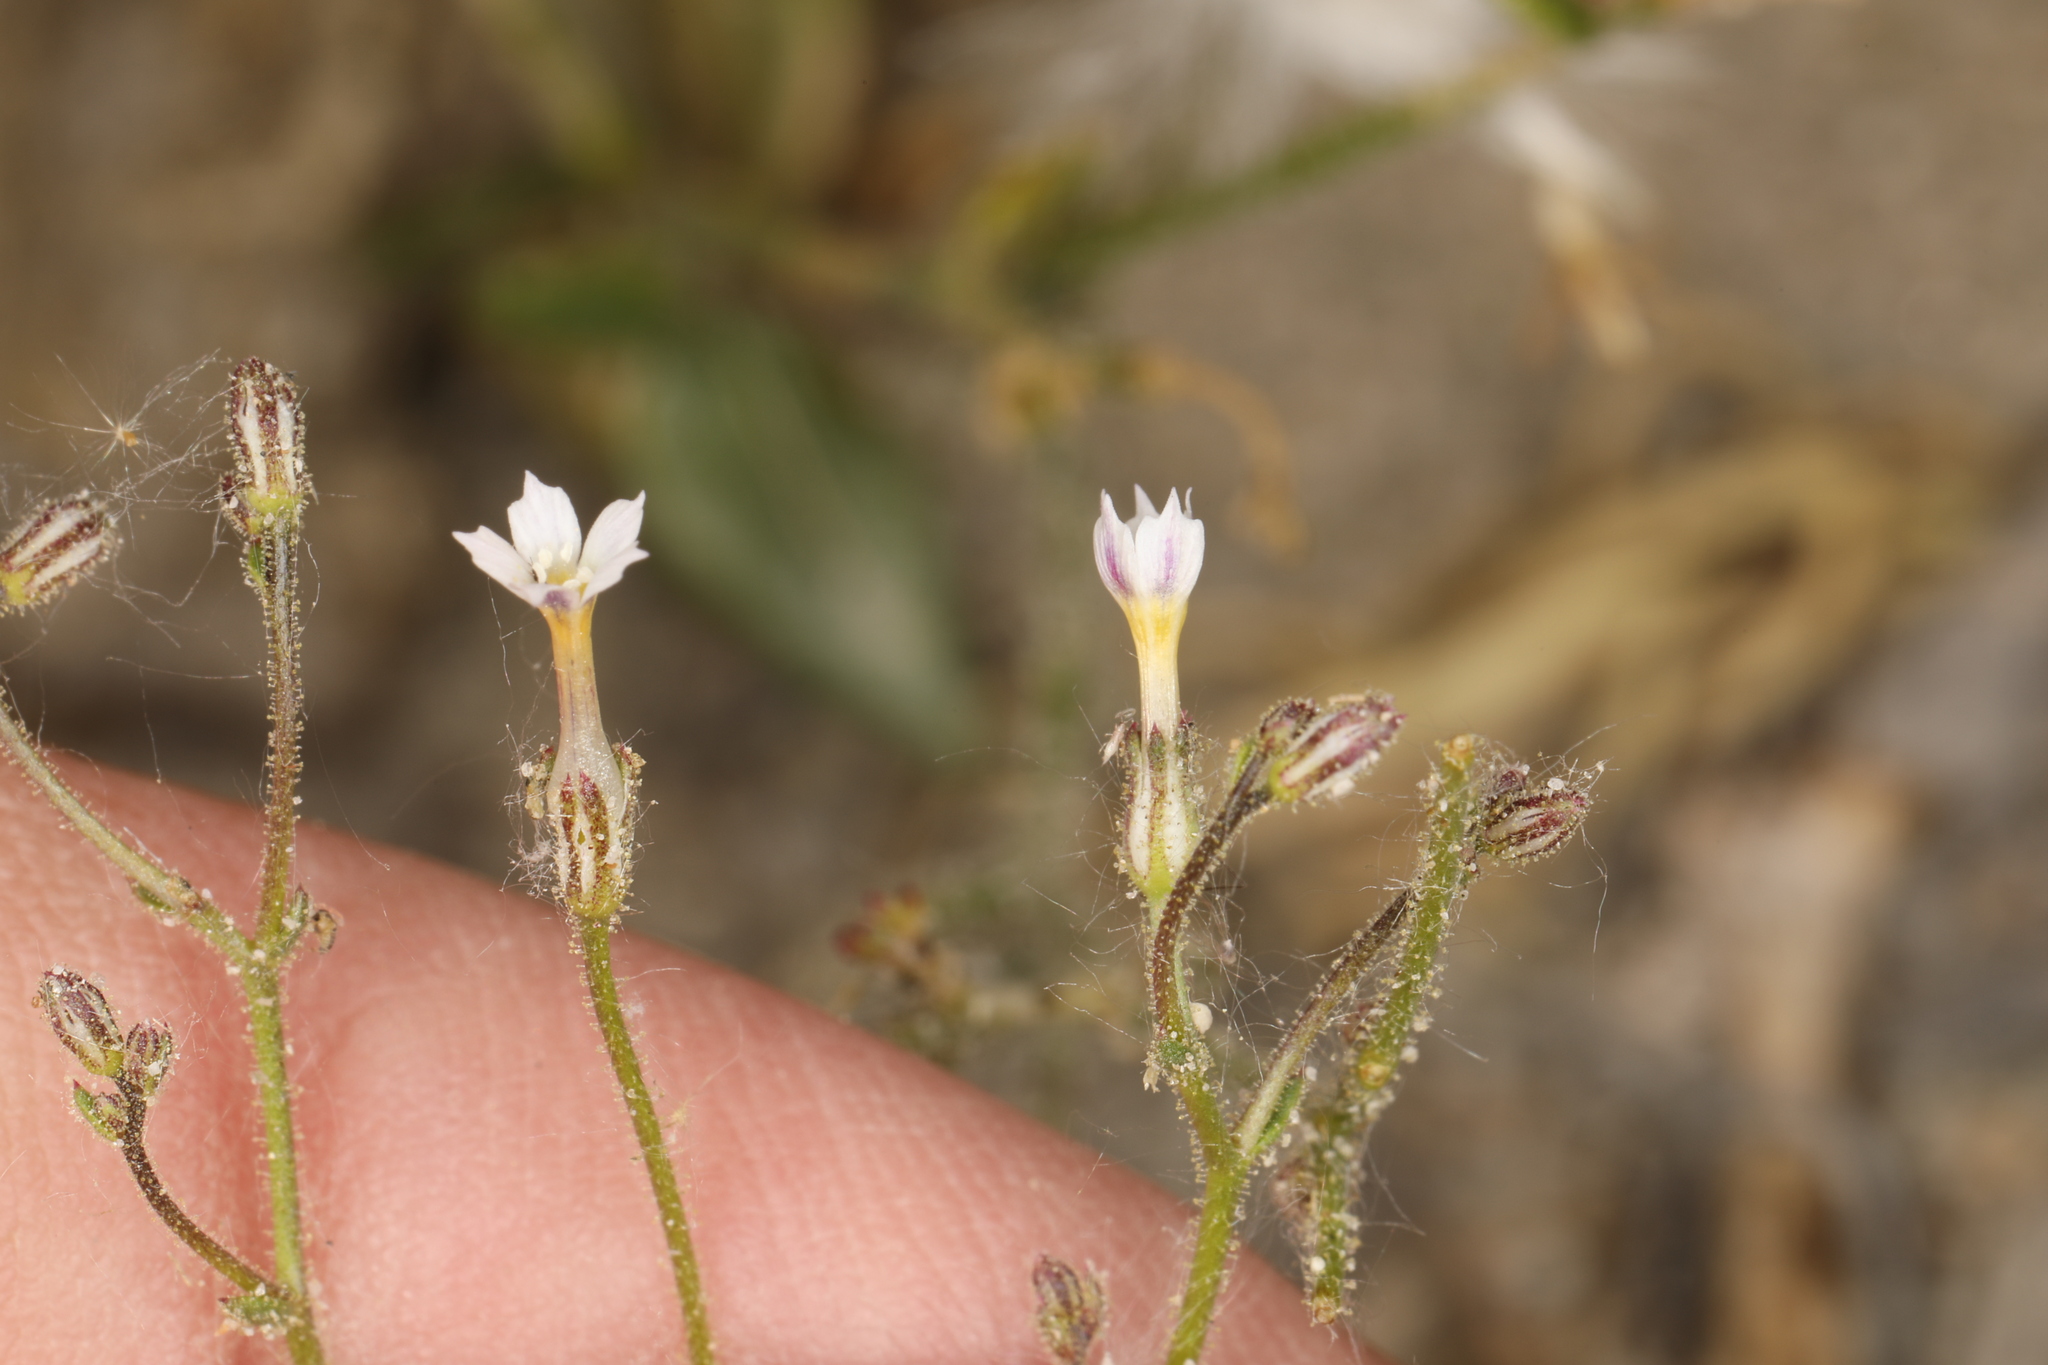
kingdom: Plantae
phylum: Tracheophyta
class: Magnoliopsida
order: Ericales
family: Polemoniaceae
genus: Aliciella
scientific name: Aliciella leptomeria
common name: Sand gilia
